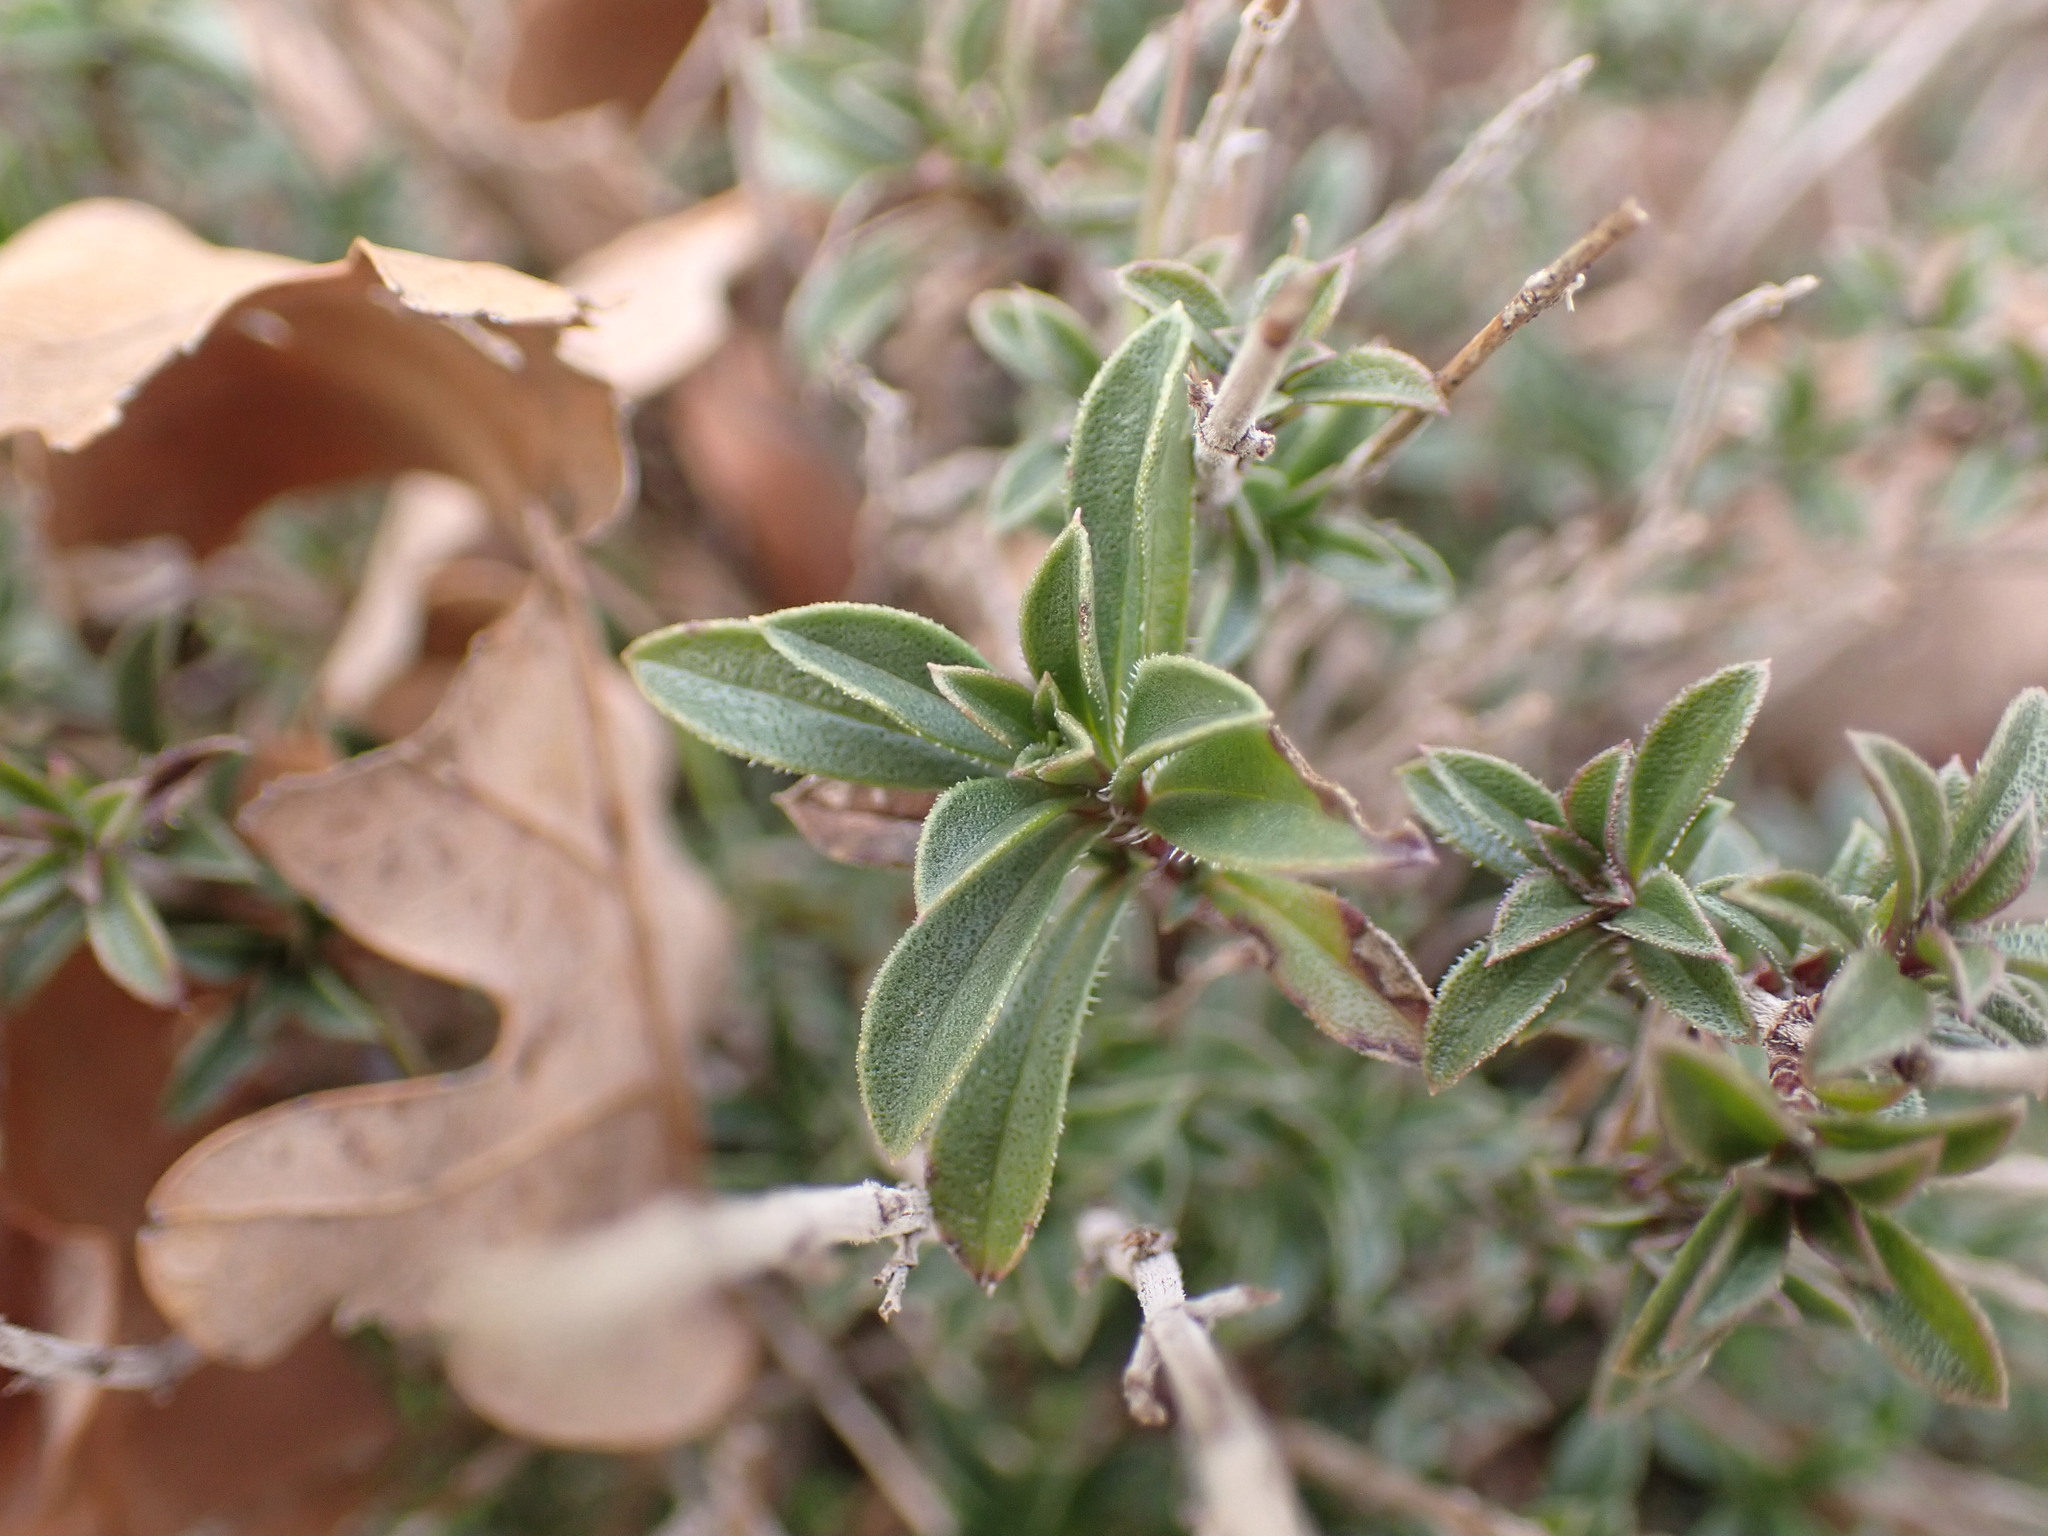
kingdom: Plantae
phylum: Tracheophyta
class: Magnoliopsida
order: Lamiales
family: Lamiaceae
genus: Satureja
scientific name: Satureja montana
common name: Winter savory
